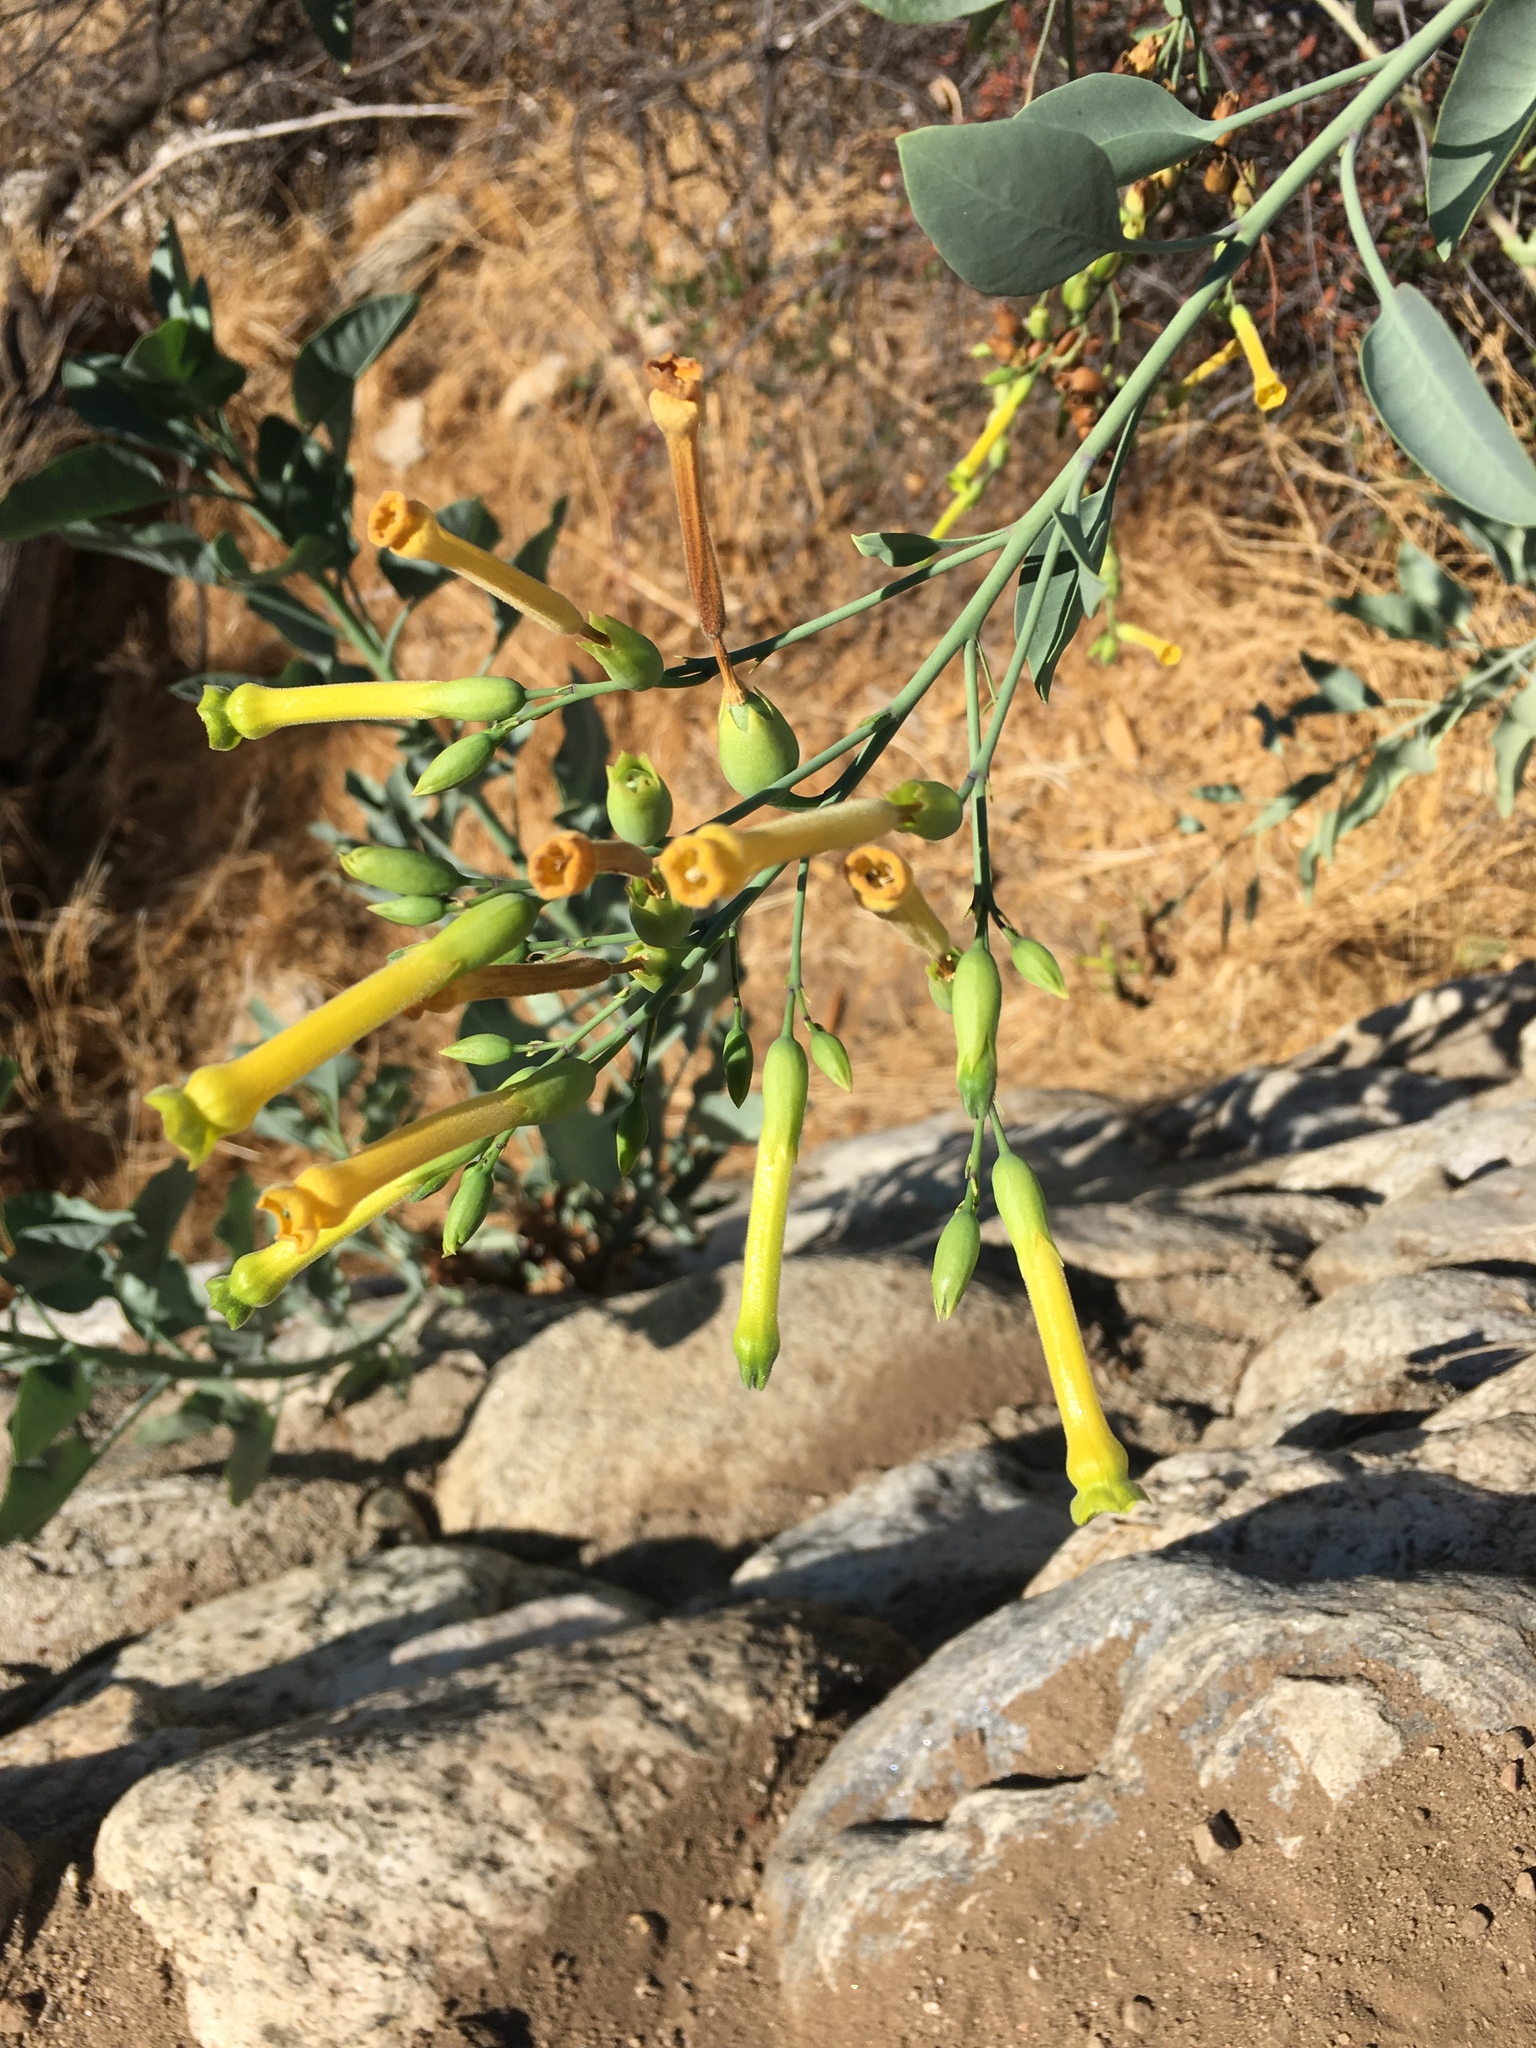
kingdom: Plantae
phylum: Tracheophyta
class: Magnoliopsida
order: Solanales
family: Solanaceae
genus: Nicotiana
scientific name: Nicotiana glauca
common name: Tree tobacco
